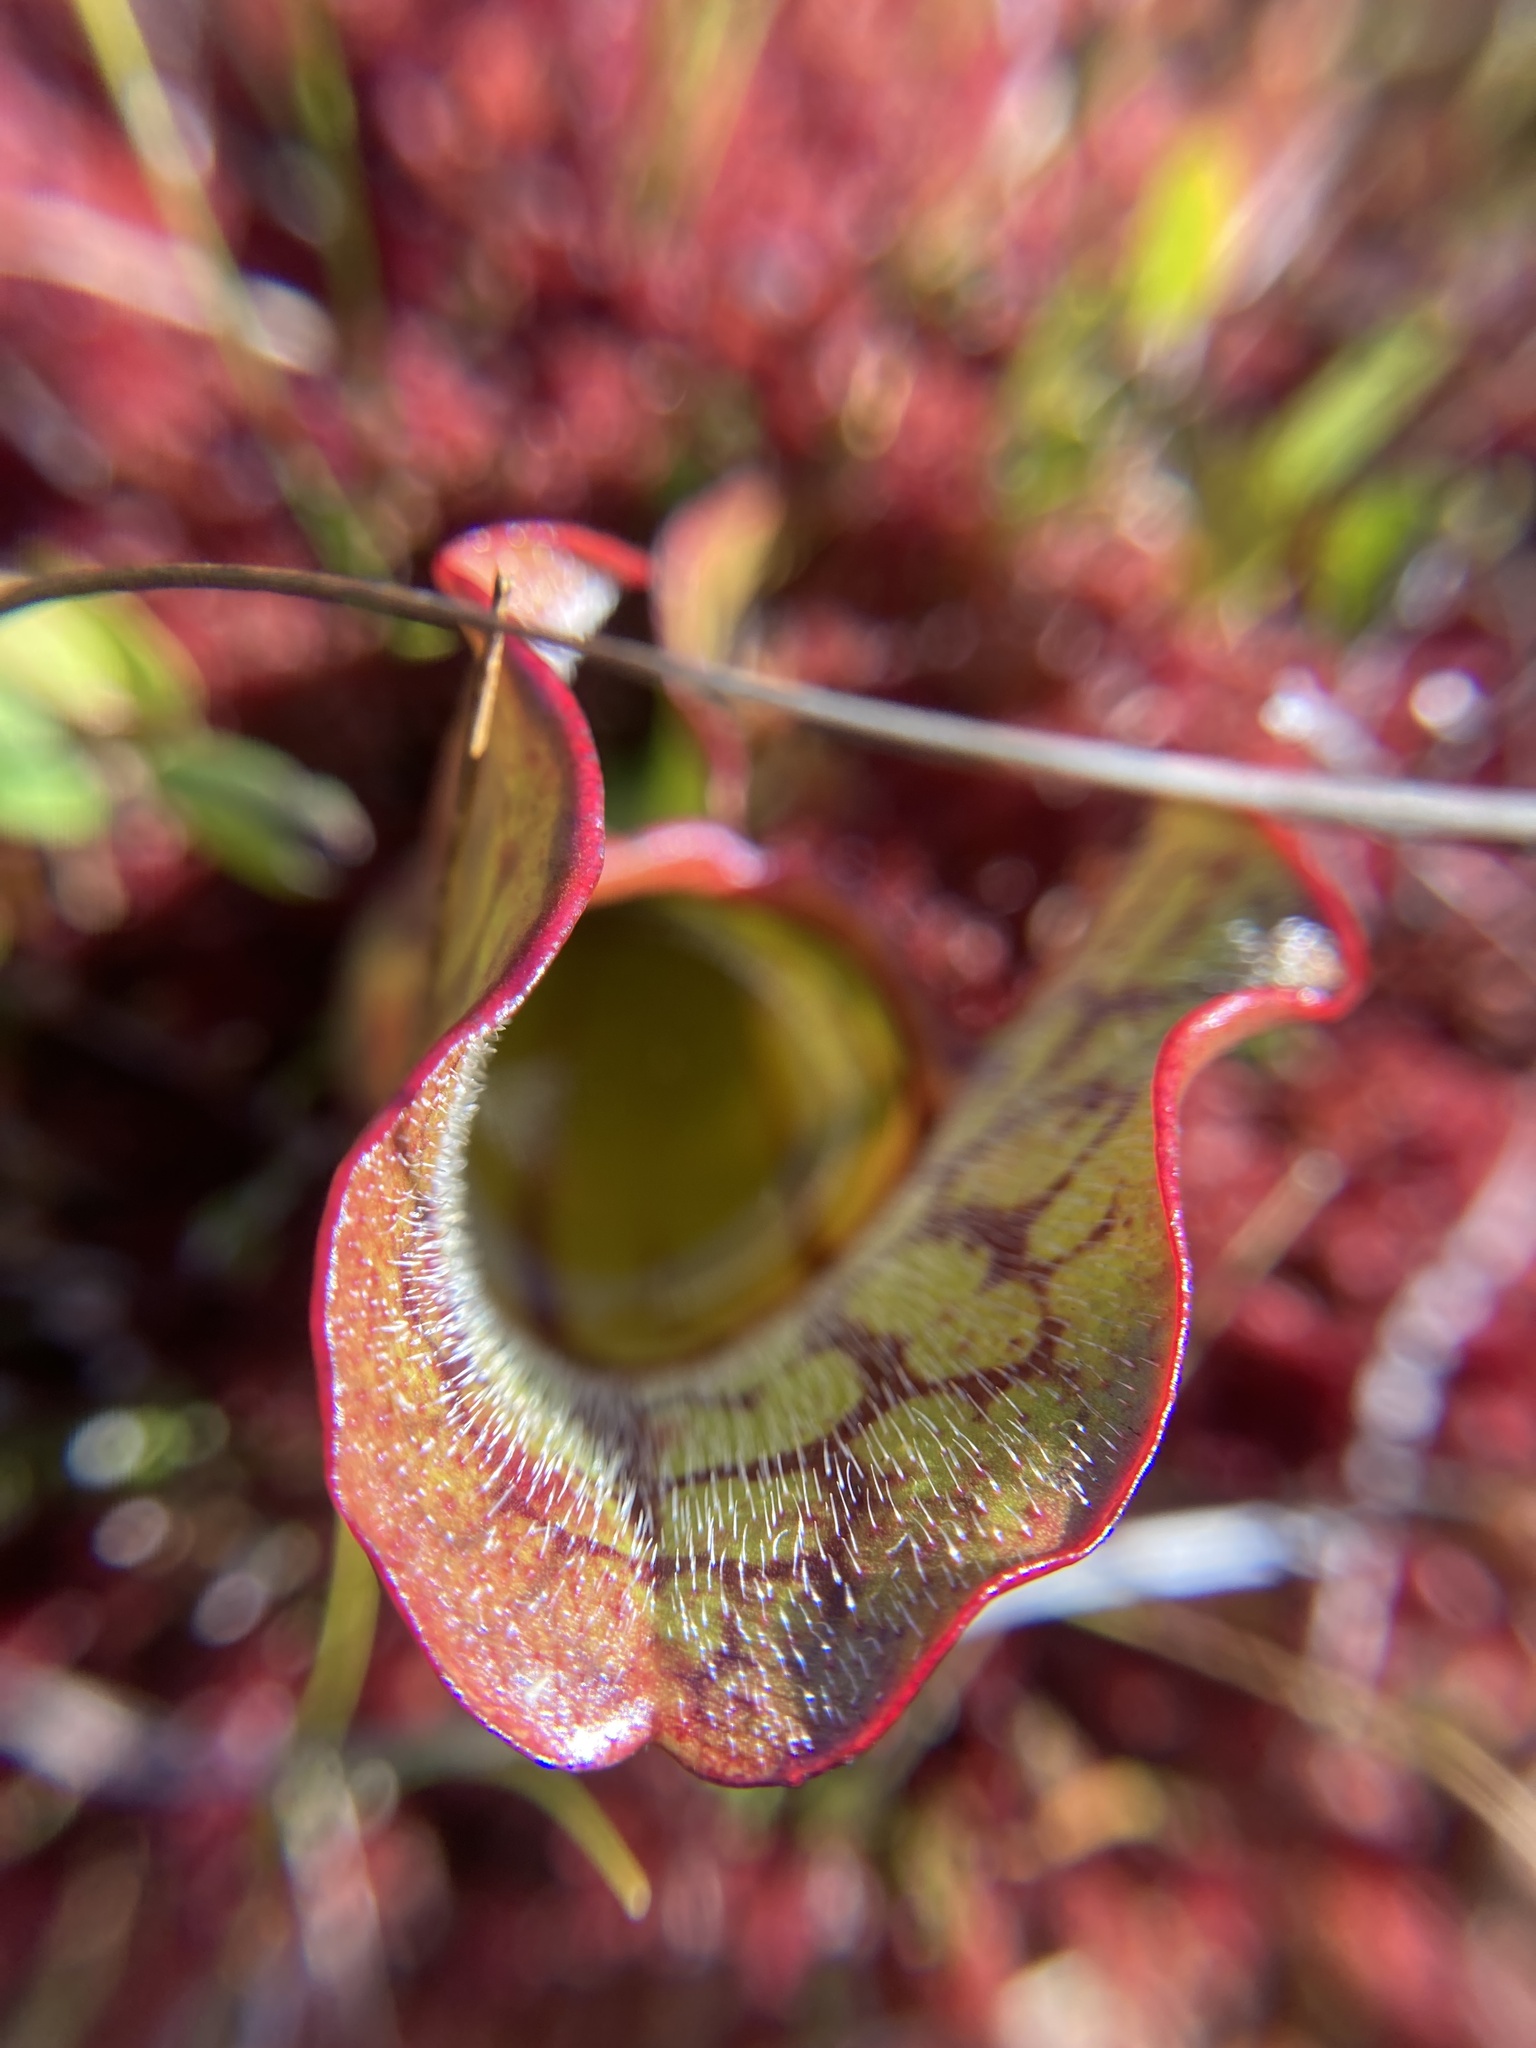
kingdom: Plantae
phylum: Tracheophyta
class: Magnoliopsida
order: Ericales
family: Sarraceniaceae
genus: Sarracenia
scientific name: Sarracenia purpurea
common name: Pitcherplant
